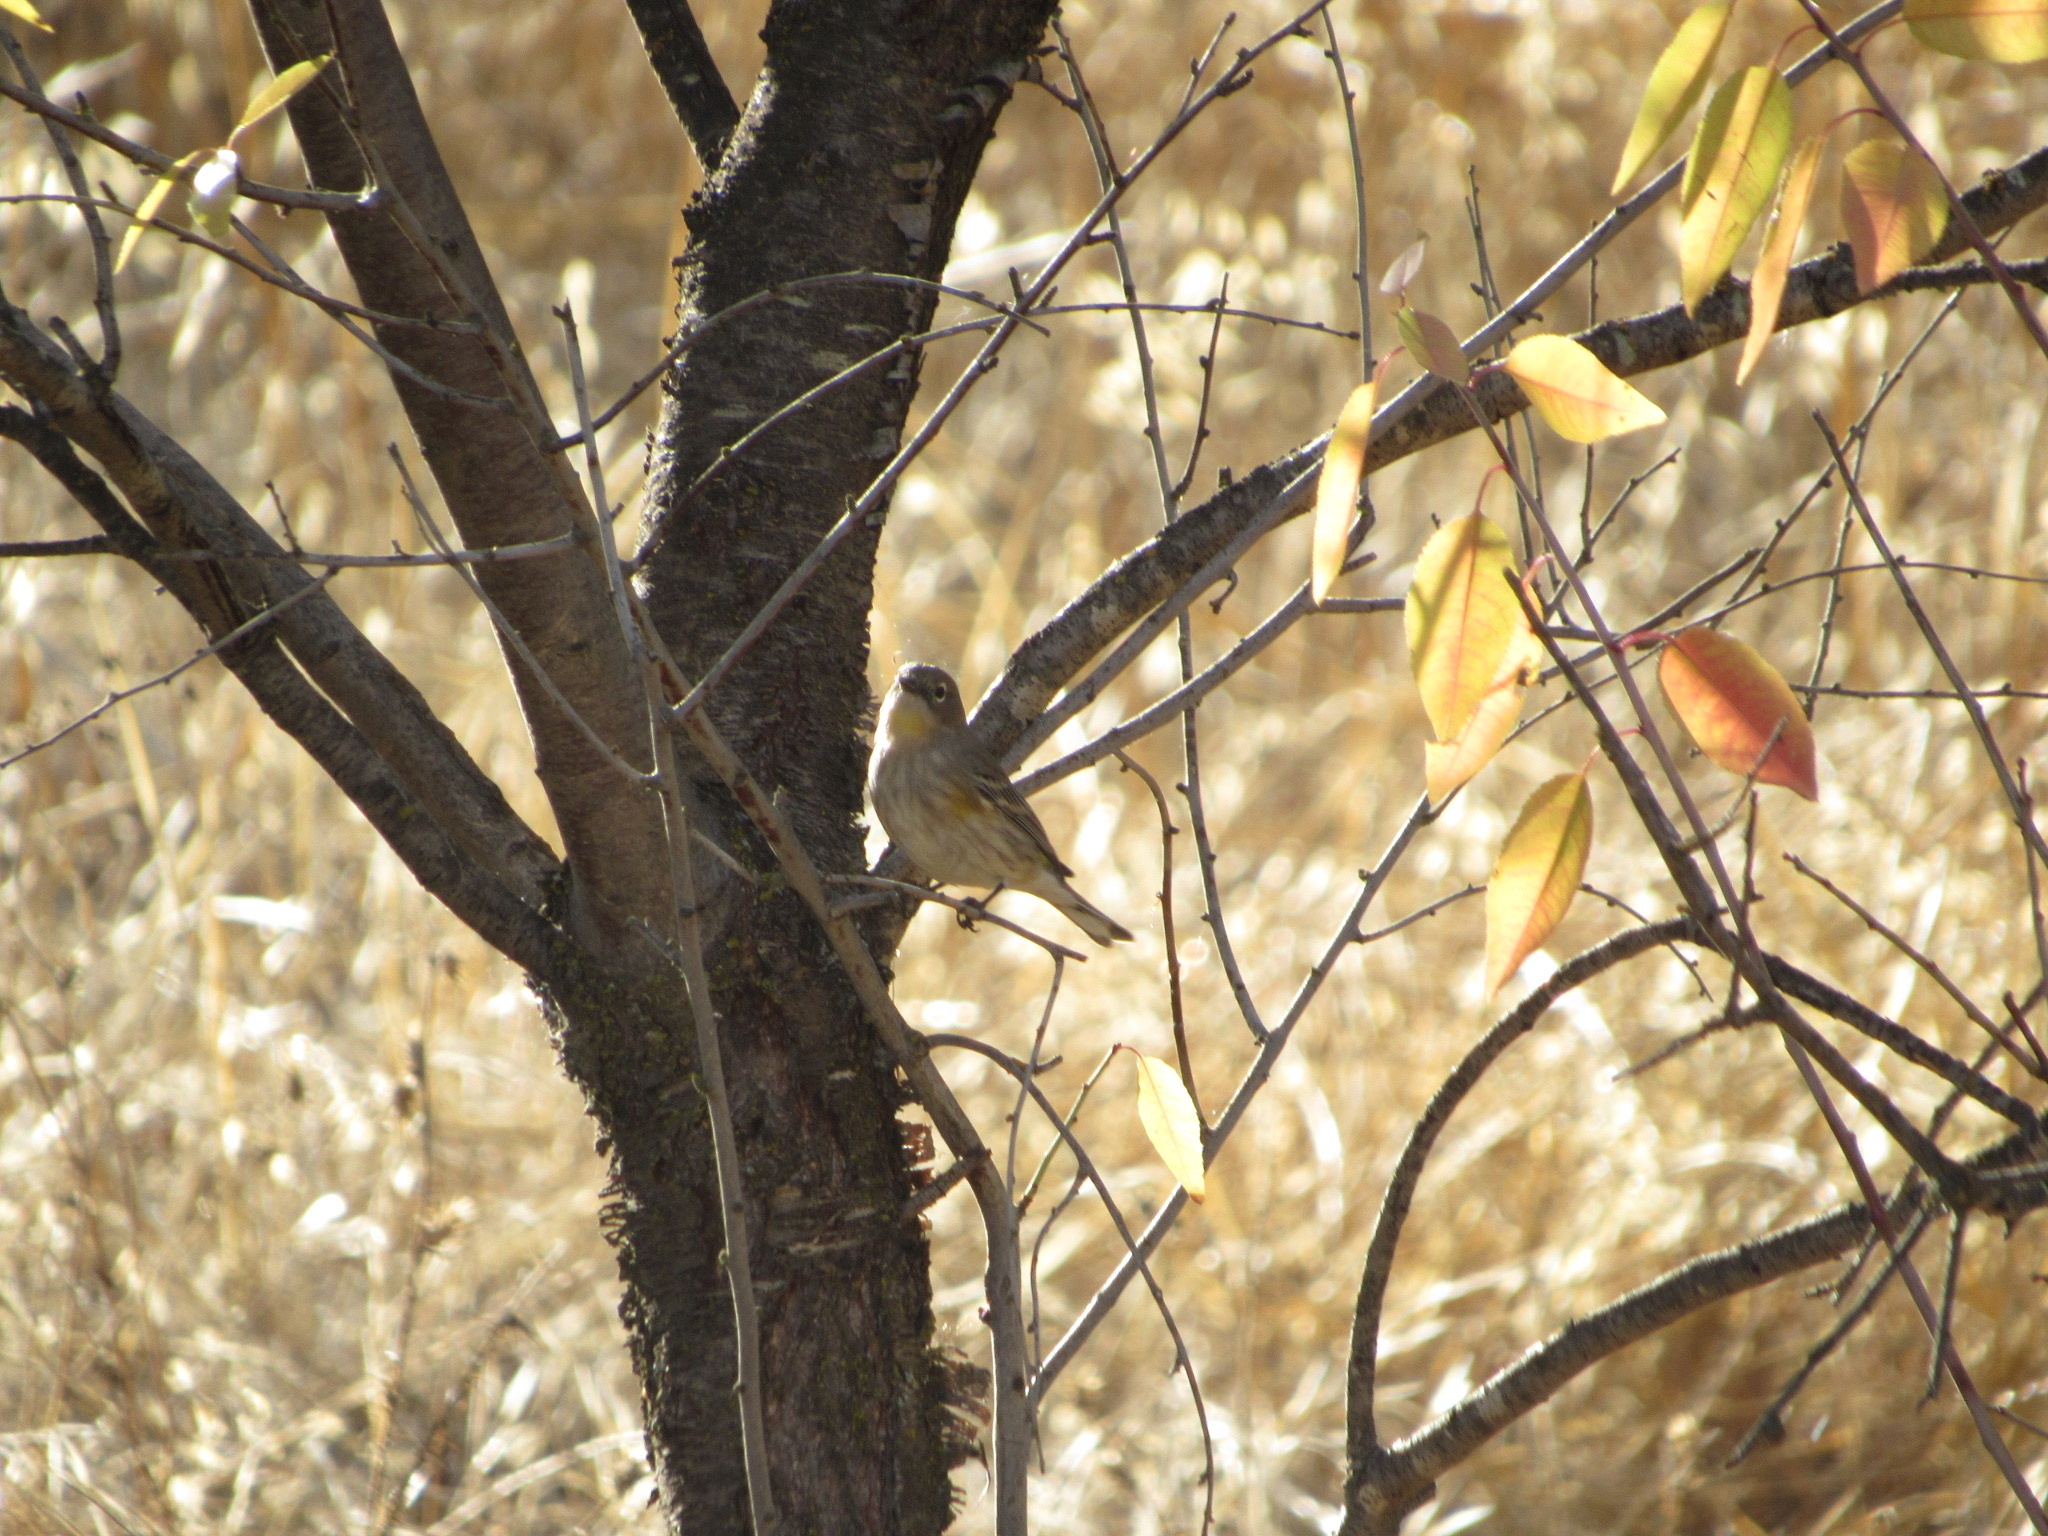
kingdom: Animalia
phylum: Chordata
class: Aves
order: Passeriformes
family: Parulidae
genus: Setophaga
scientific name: Setophaga coronata
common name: Myrtle warbler
